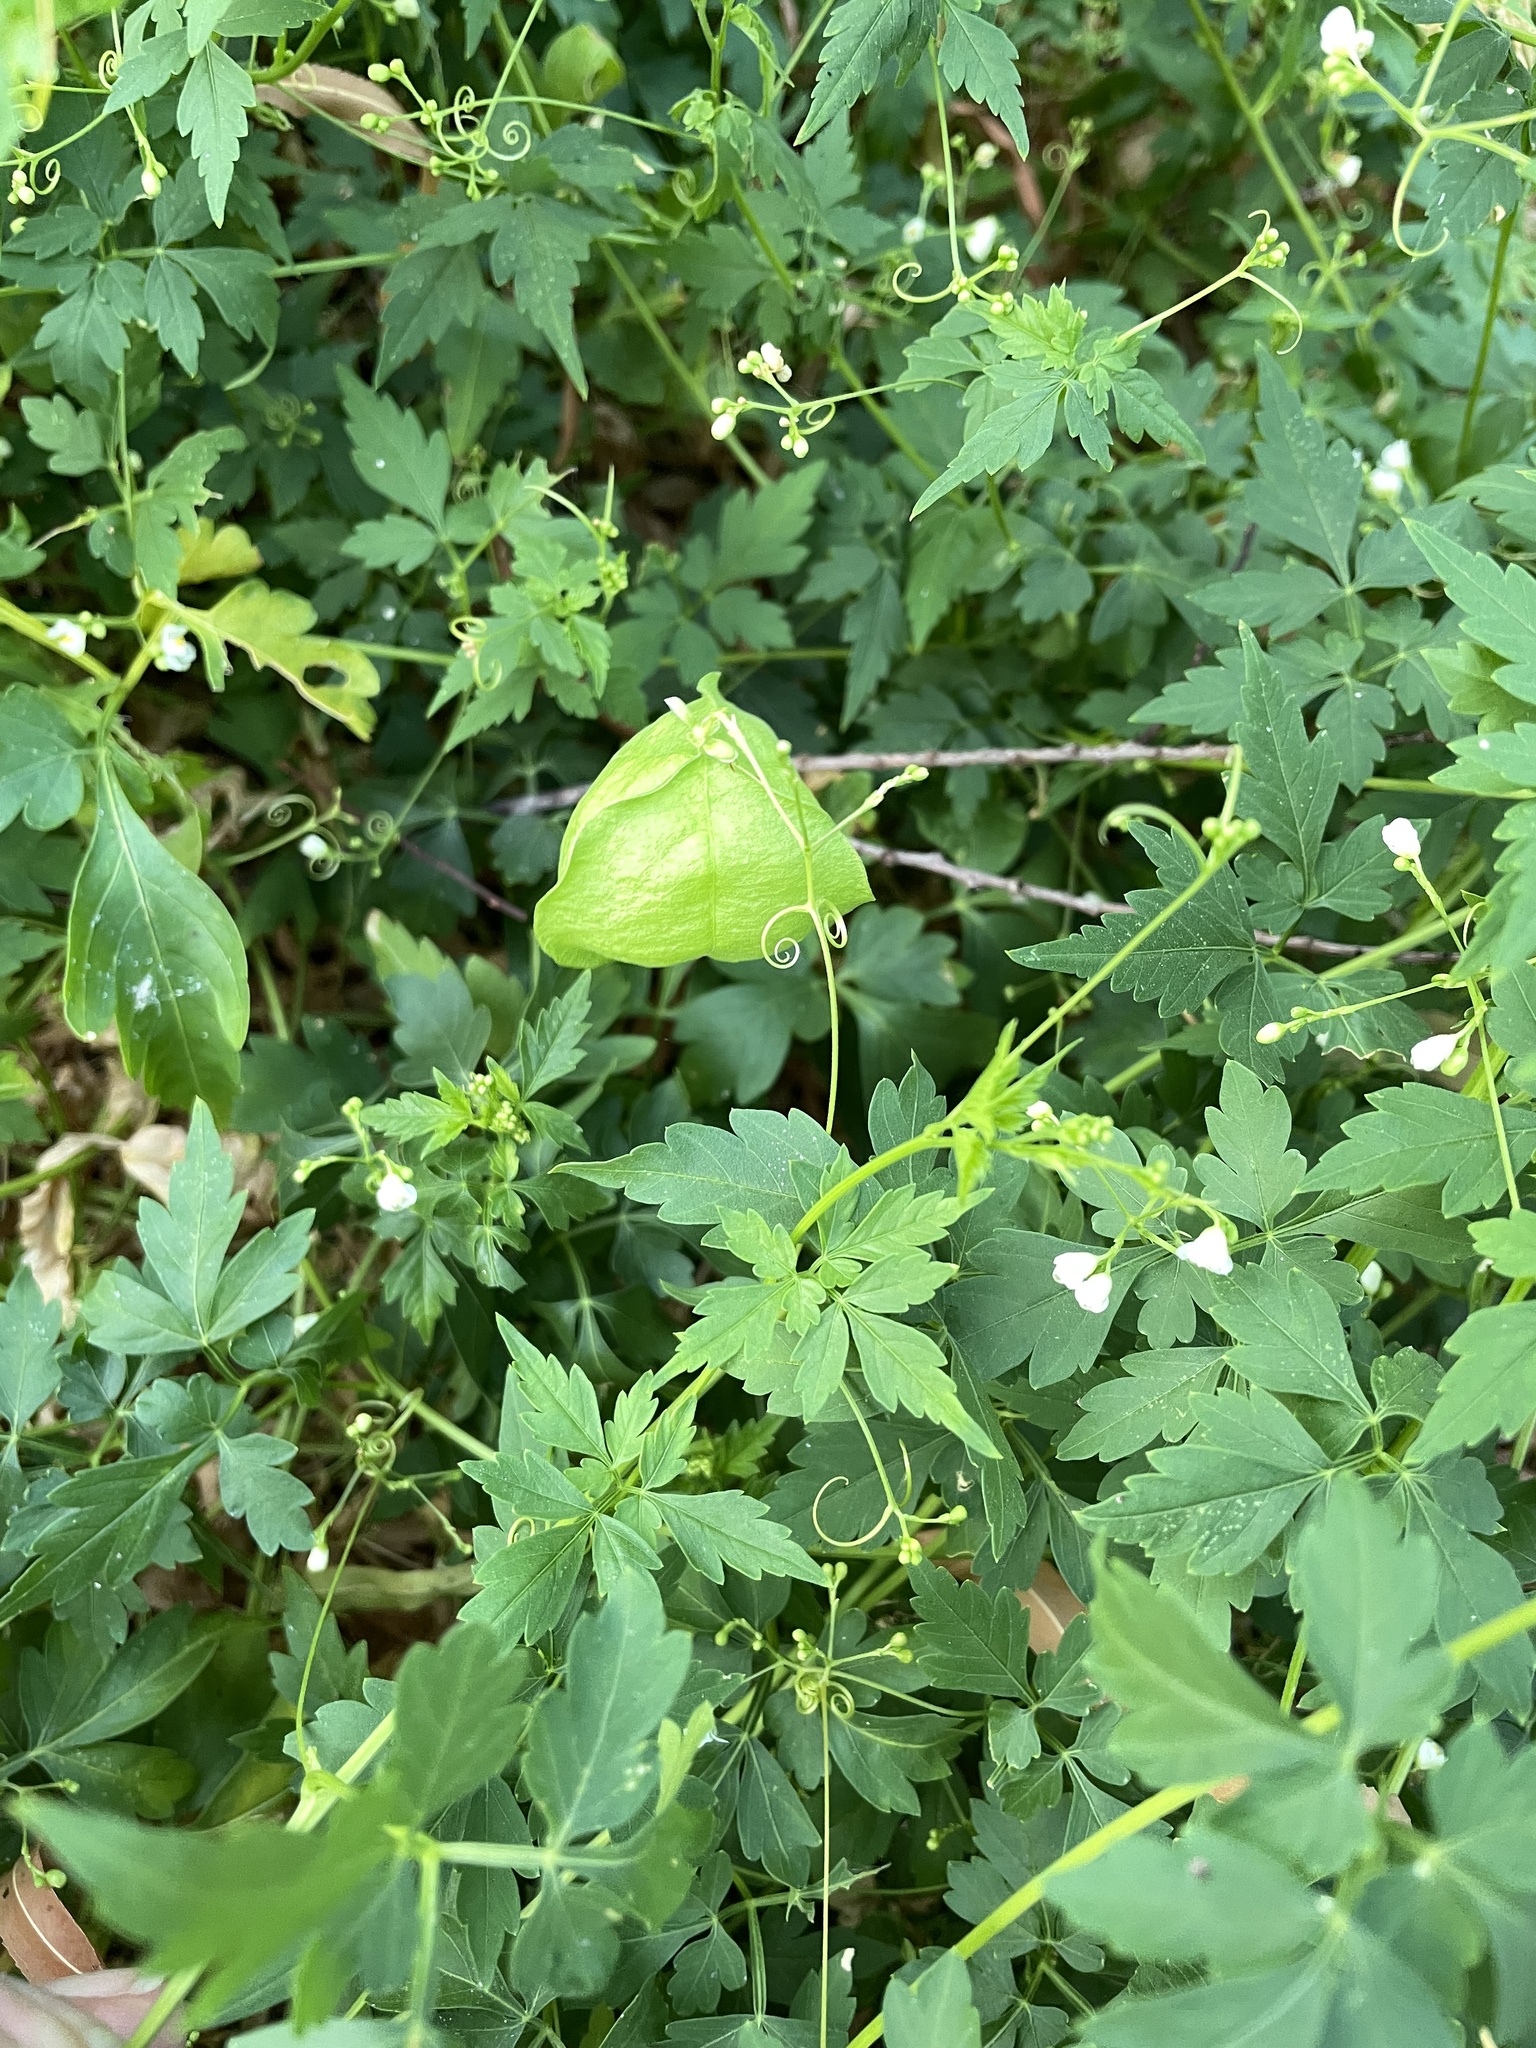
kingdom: Plantae
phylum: Tracheophyta
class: Magnoliopsida
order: Sapindales
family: Sapindaceae
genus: Cardiospermum
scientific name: Cardiospermum halicacabum
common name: Balloon vine
